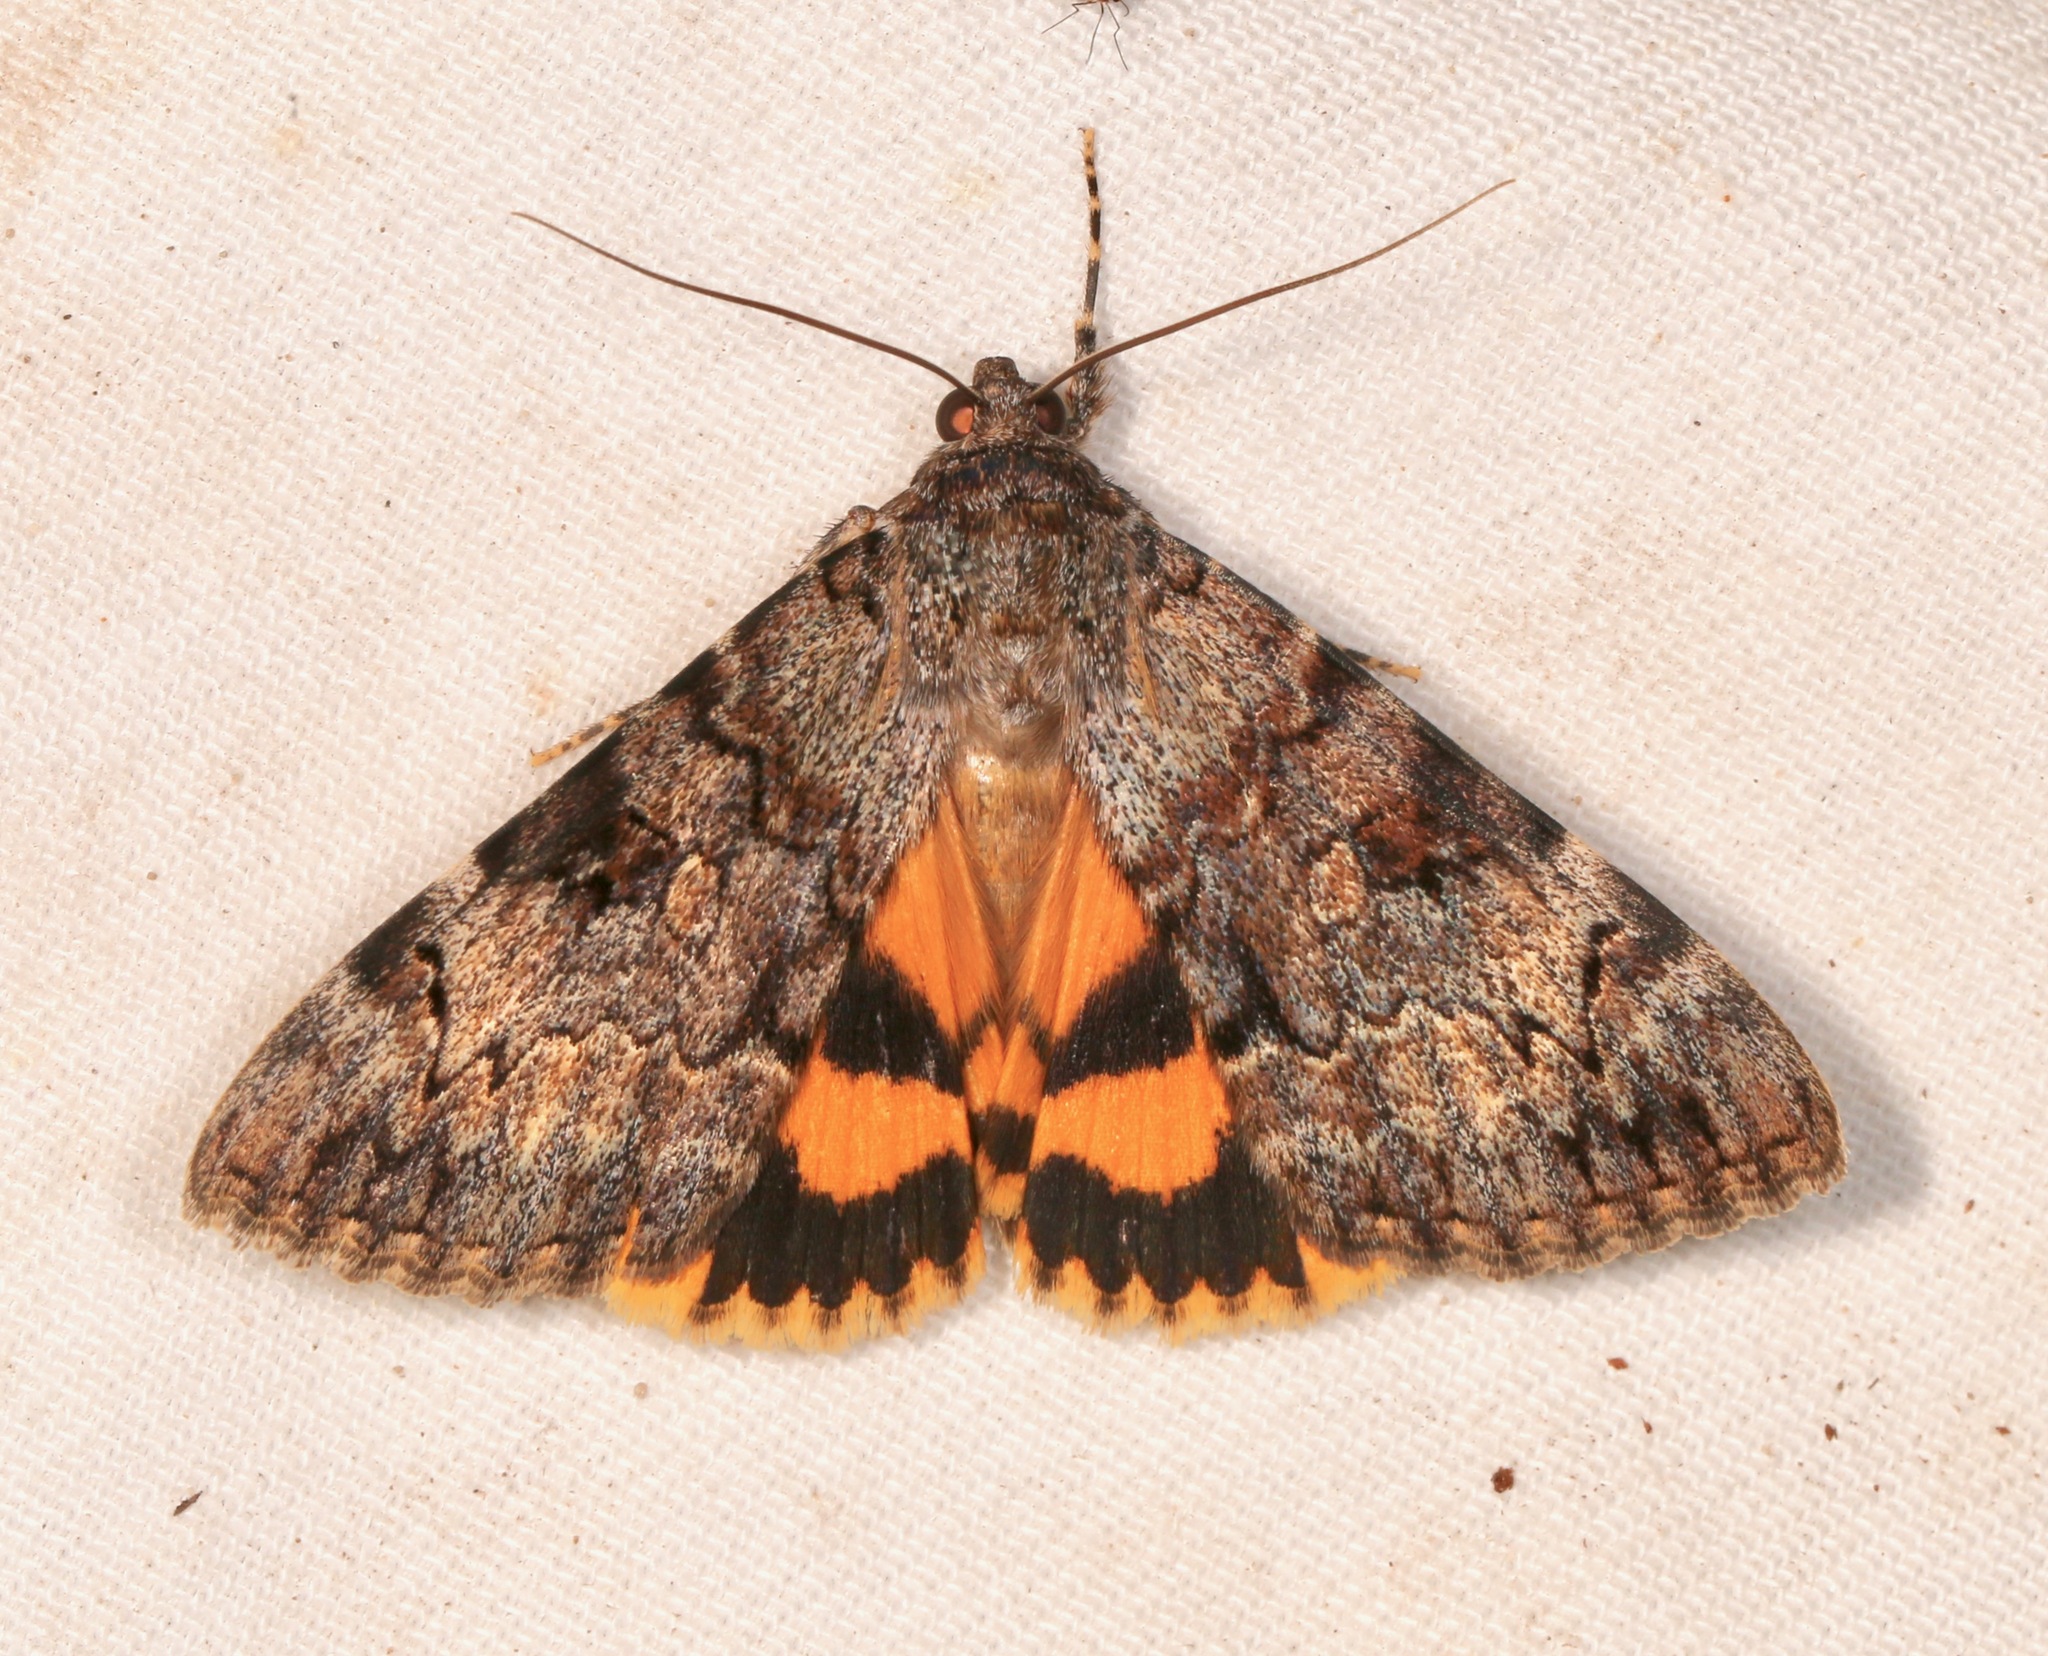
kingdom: Animalia
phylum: Arthropoda
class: Insecta
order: Lepidoptera
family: Erebidae
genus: Catocala
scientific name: Catocala desdemona
